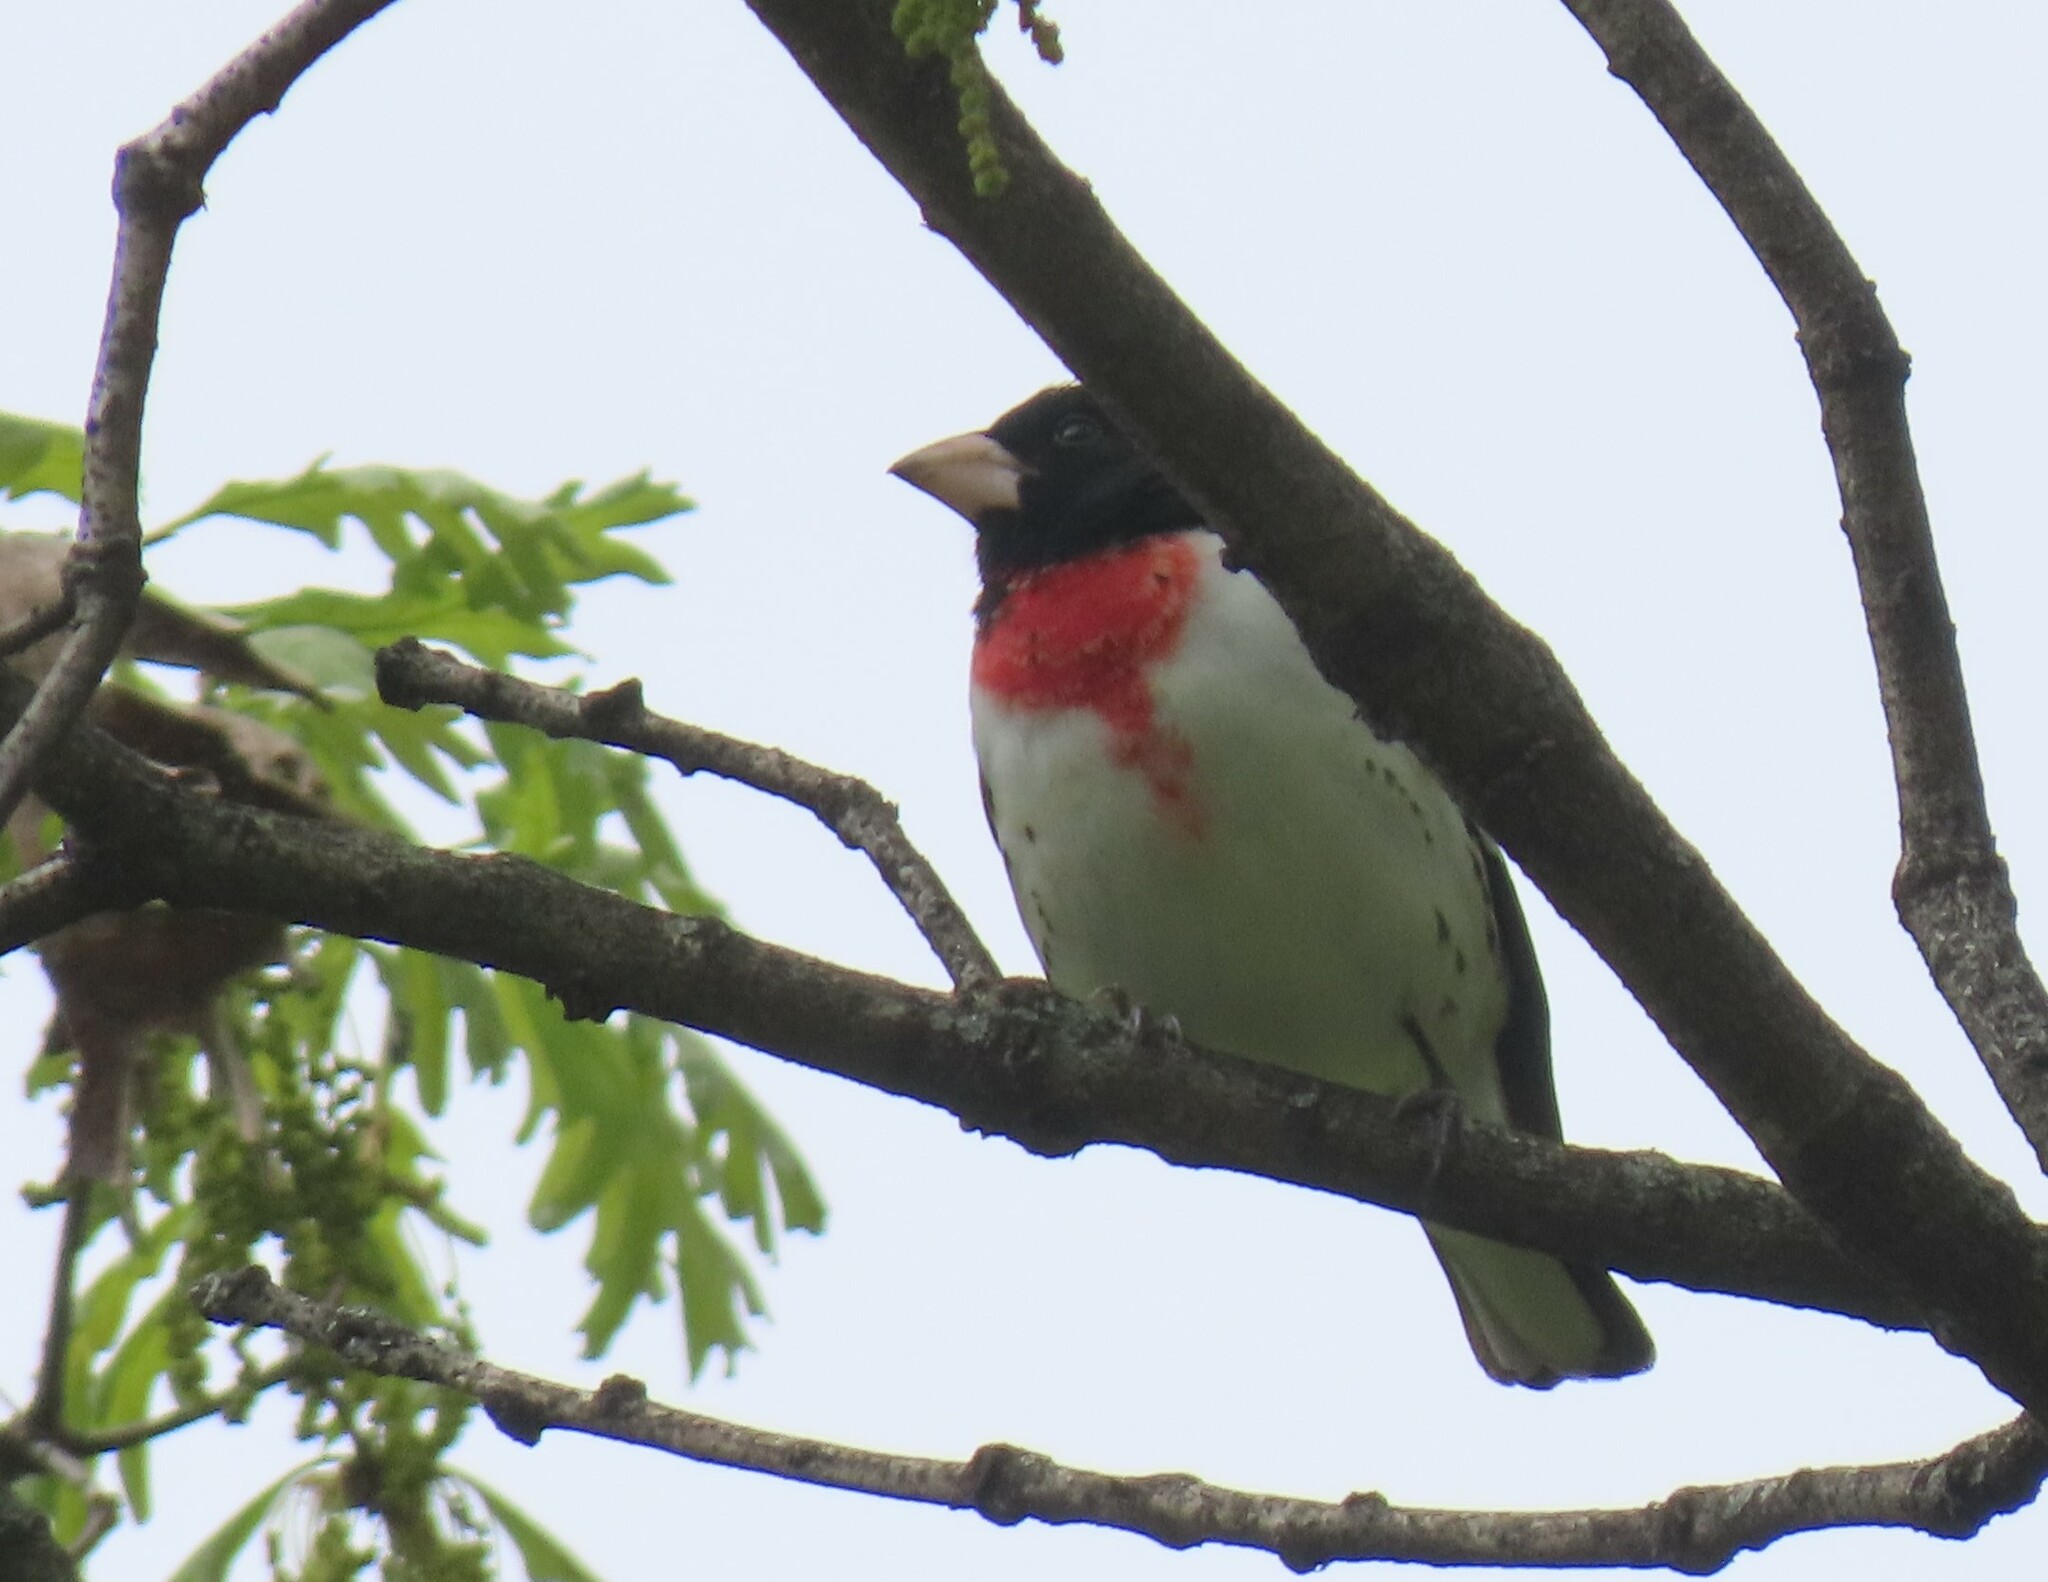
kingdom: Animalia
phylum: Chordata
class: Aves
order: Passeriformes
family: Cardinalidae
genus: Pheucticus
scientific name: Pheucticus ludovicianus
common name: Rose-breasted grosbeak
